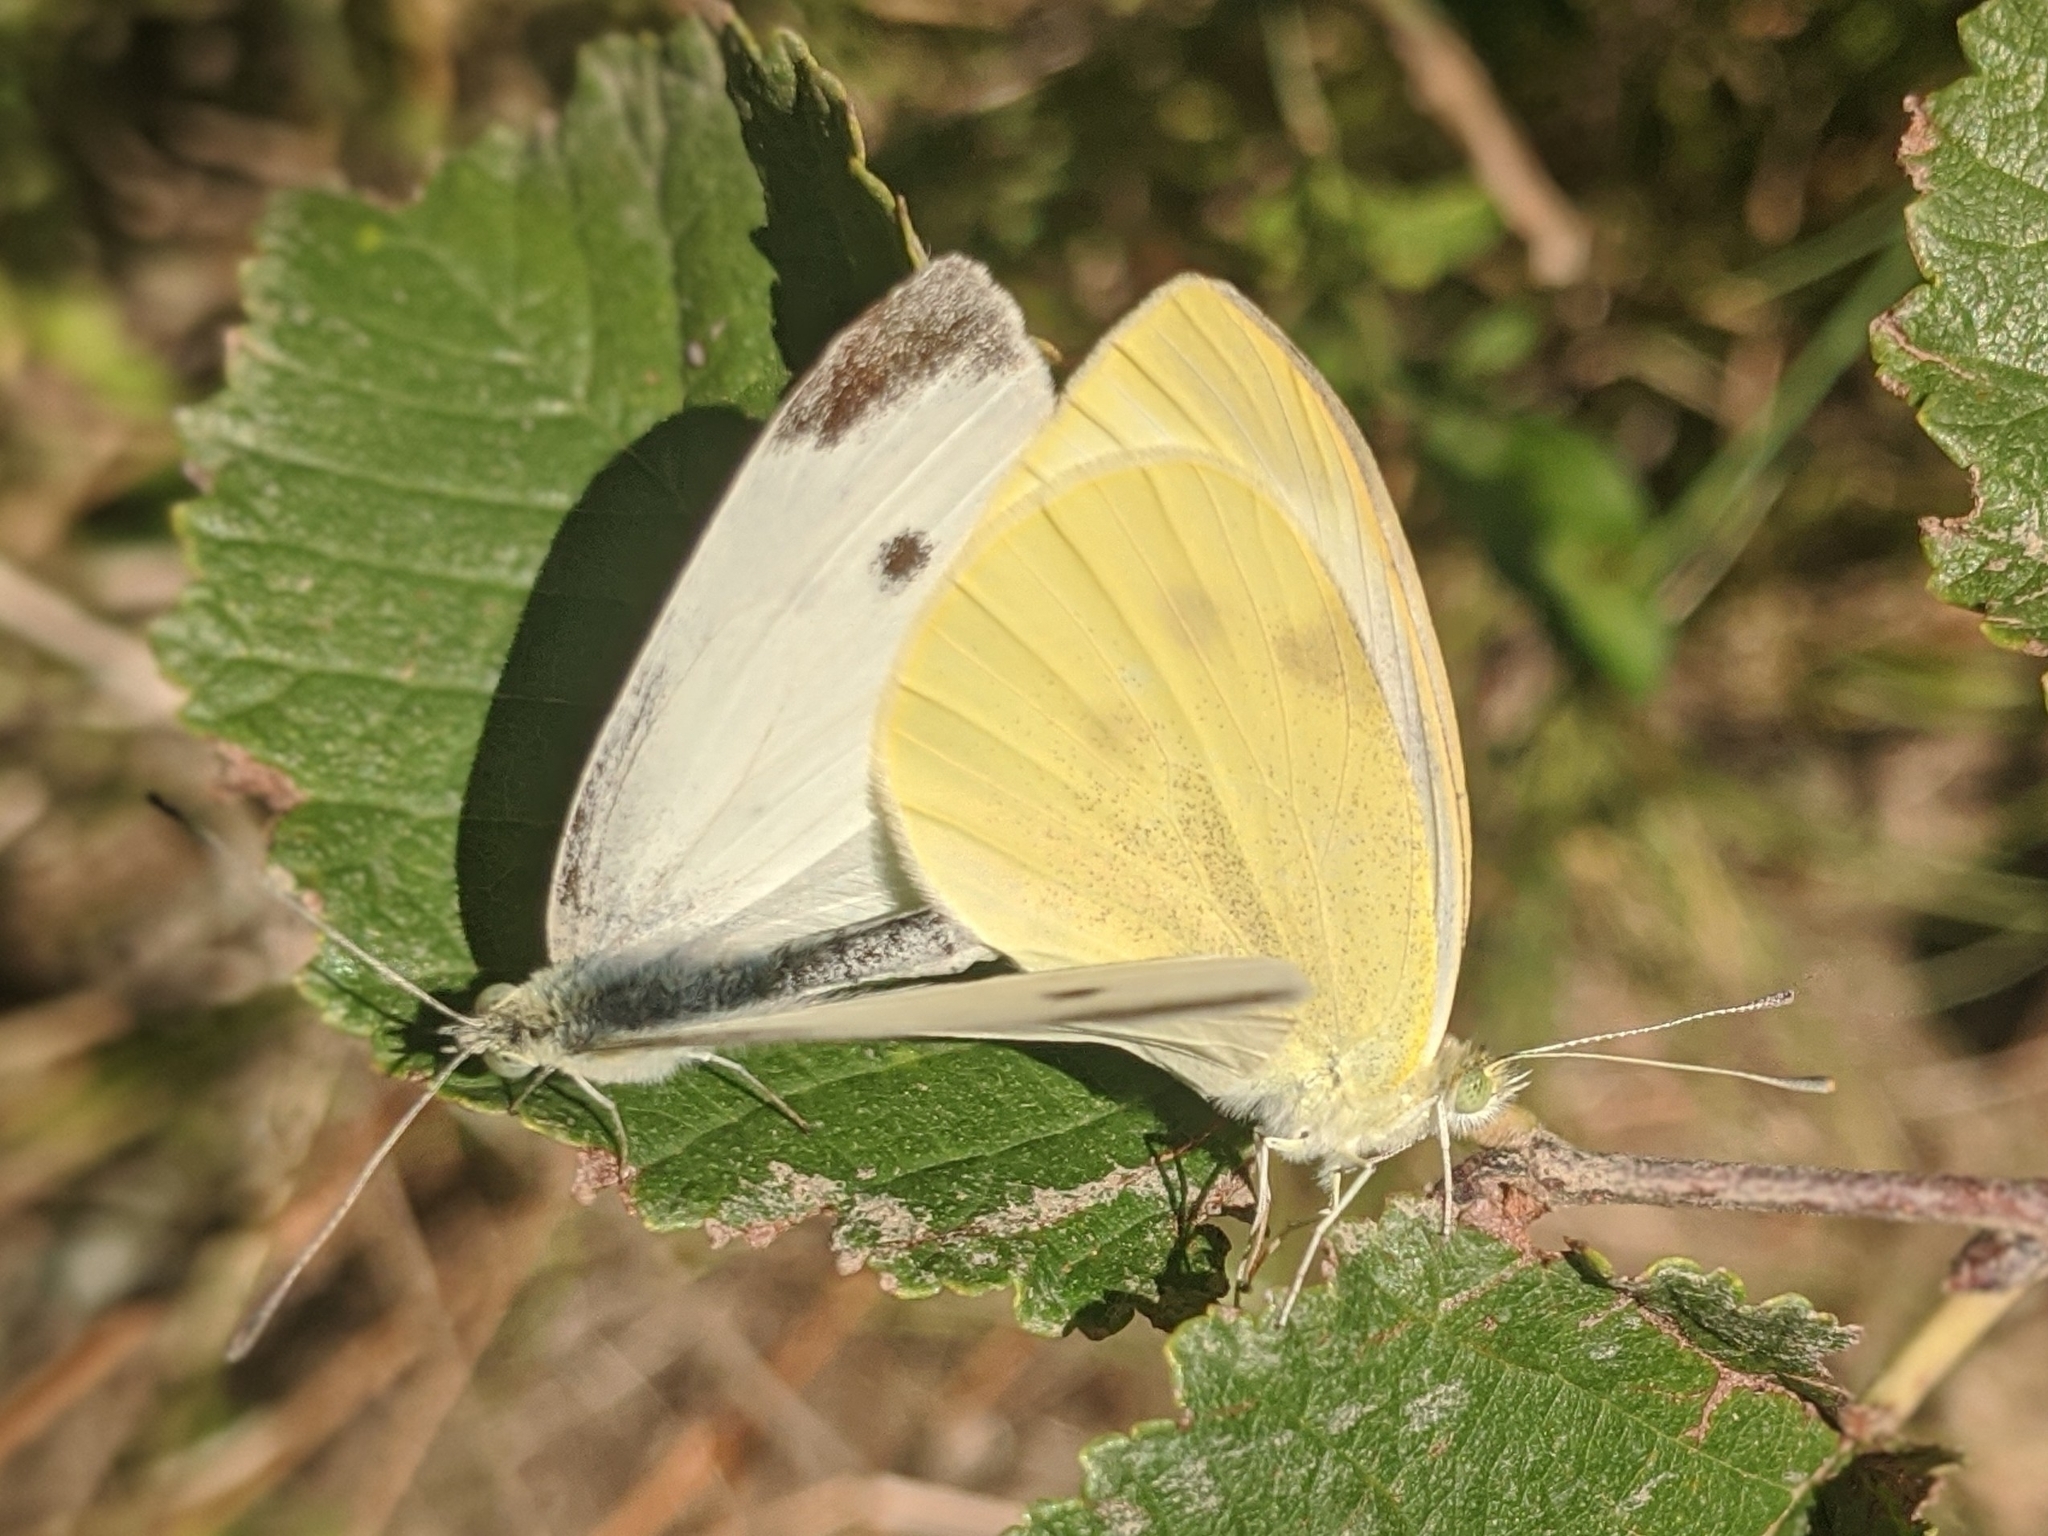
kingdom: Animalia
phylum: Arthropoda
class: Insecta
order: Lepidoptera
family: Pieridae
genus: Pieris
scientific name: Pieris rapae
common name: Small white
